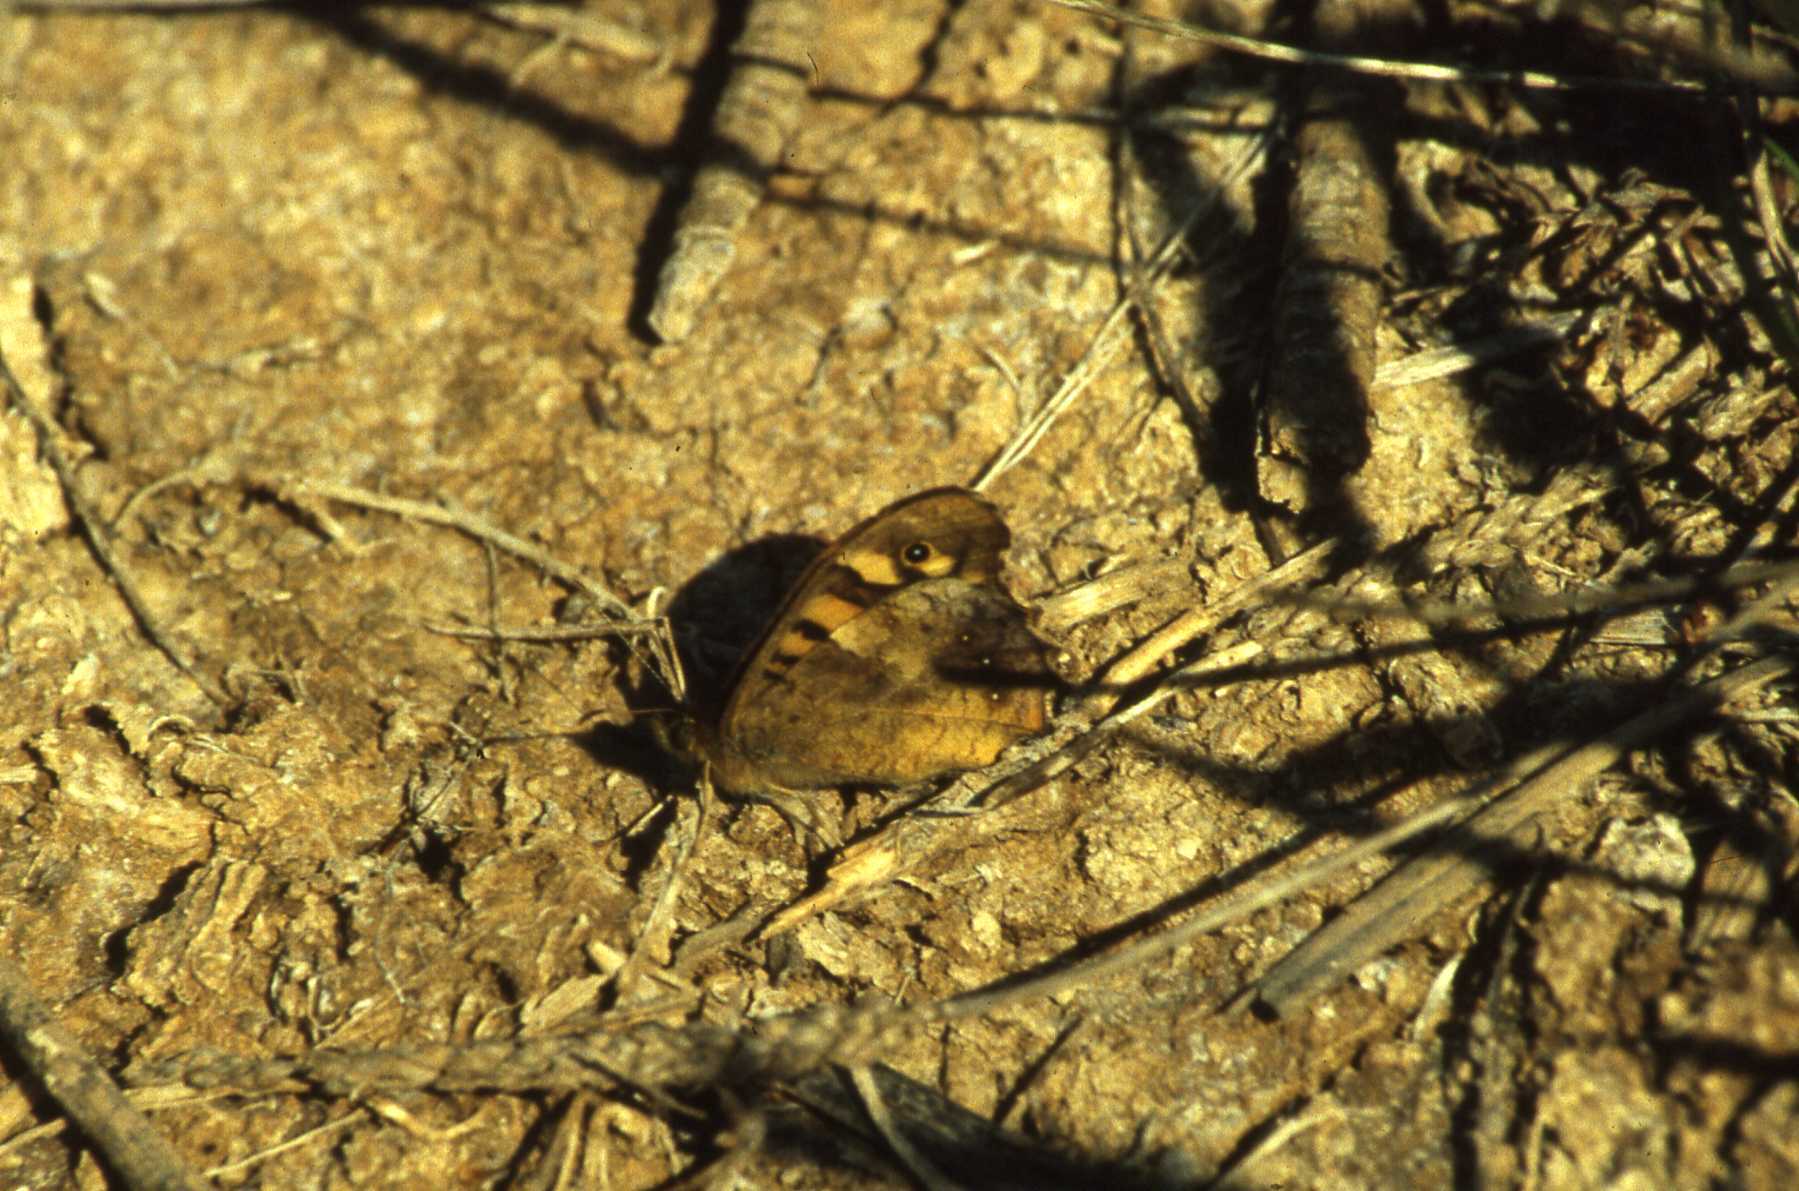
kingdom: Animalia
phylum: Arthropoda
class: Insecta
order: Lepidoptera
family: Nymphalidae
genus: Pararge
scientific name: Pararge aegeria
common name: Speckled wood
